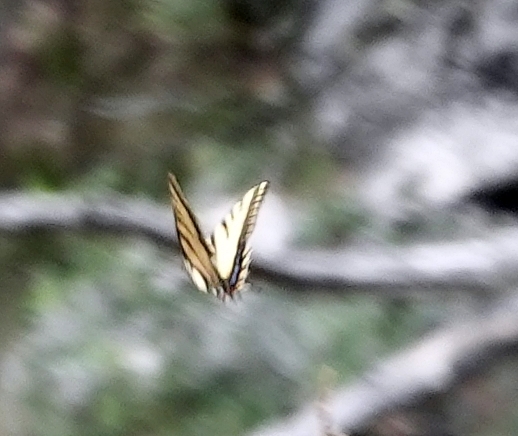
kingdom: Animalia
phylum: Arthropoda
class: Insecta
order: Lepidoptera
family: Papilionidae
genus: Papilio
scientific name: Papilio multicaudata
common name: Two-tailed tiger swallowtail
